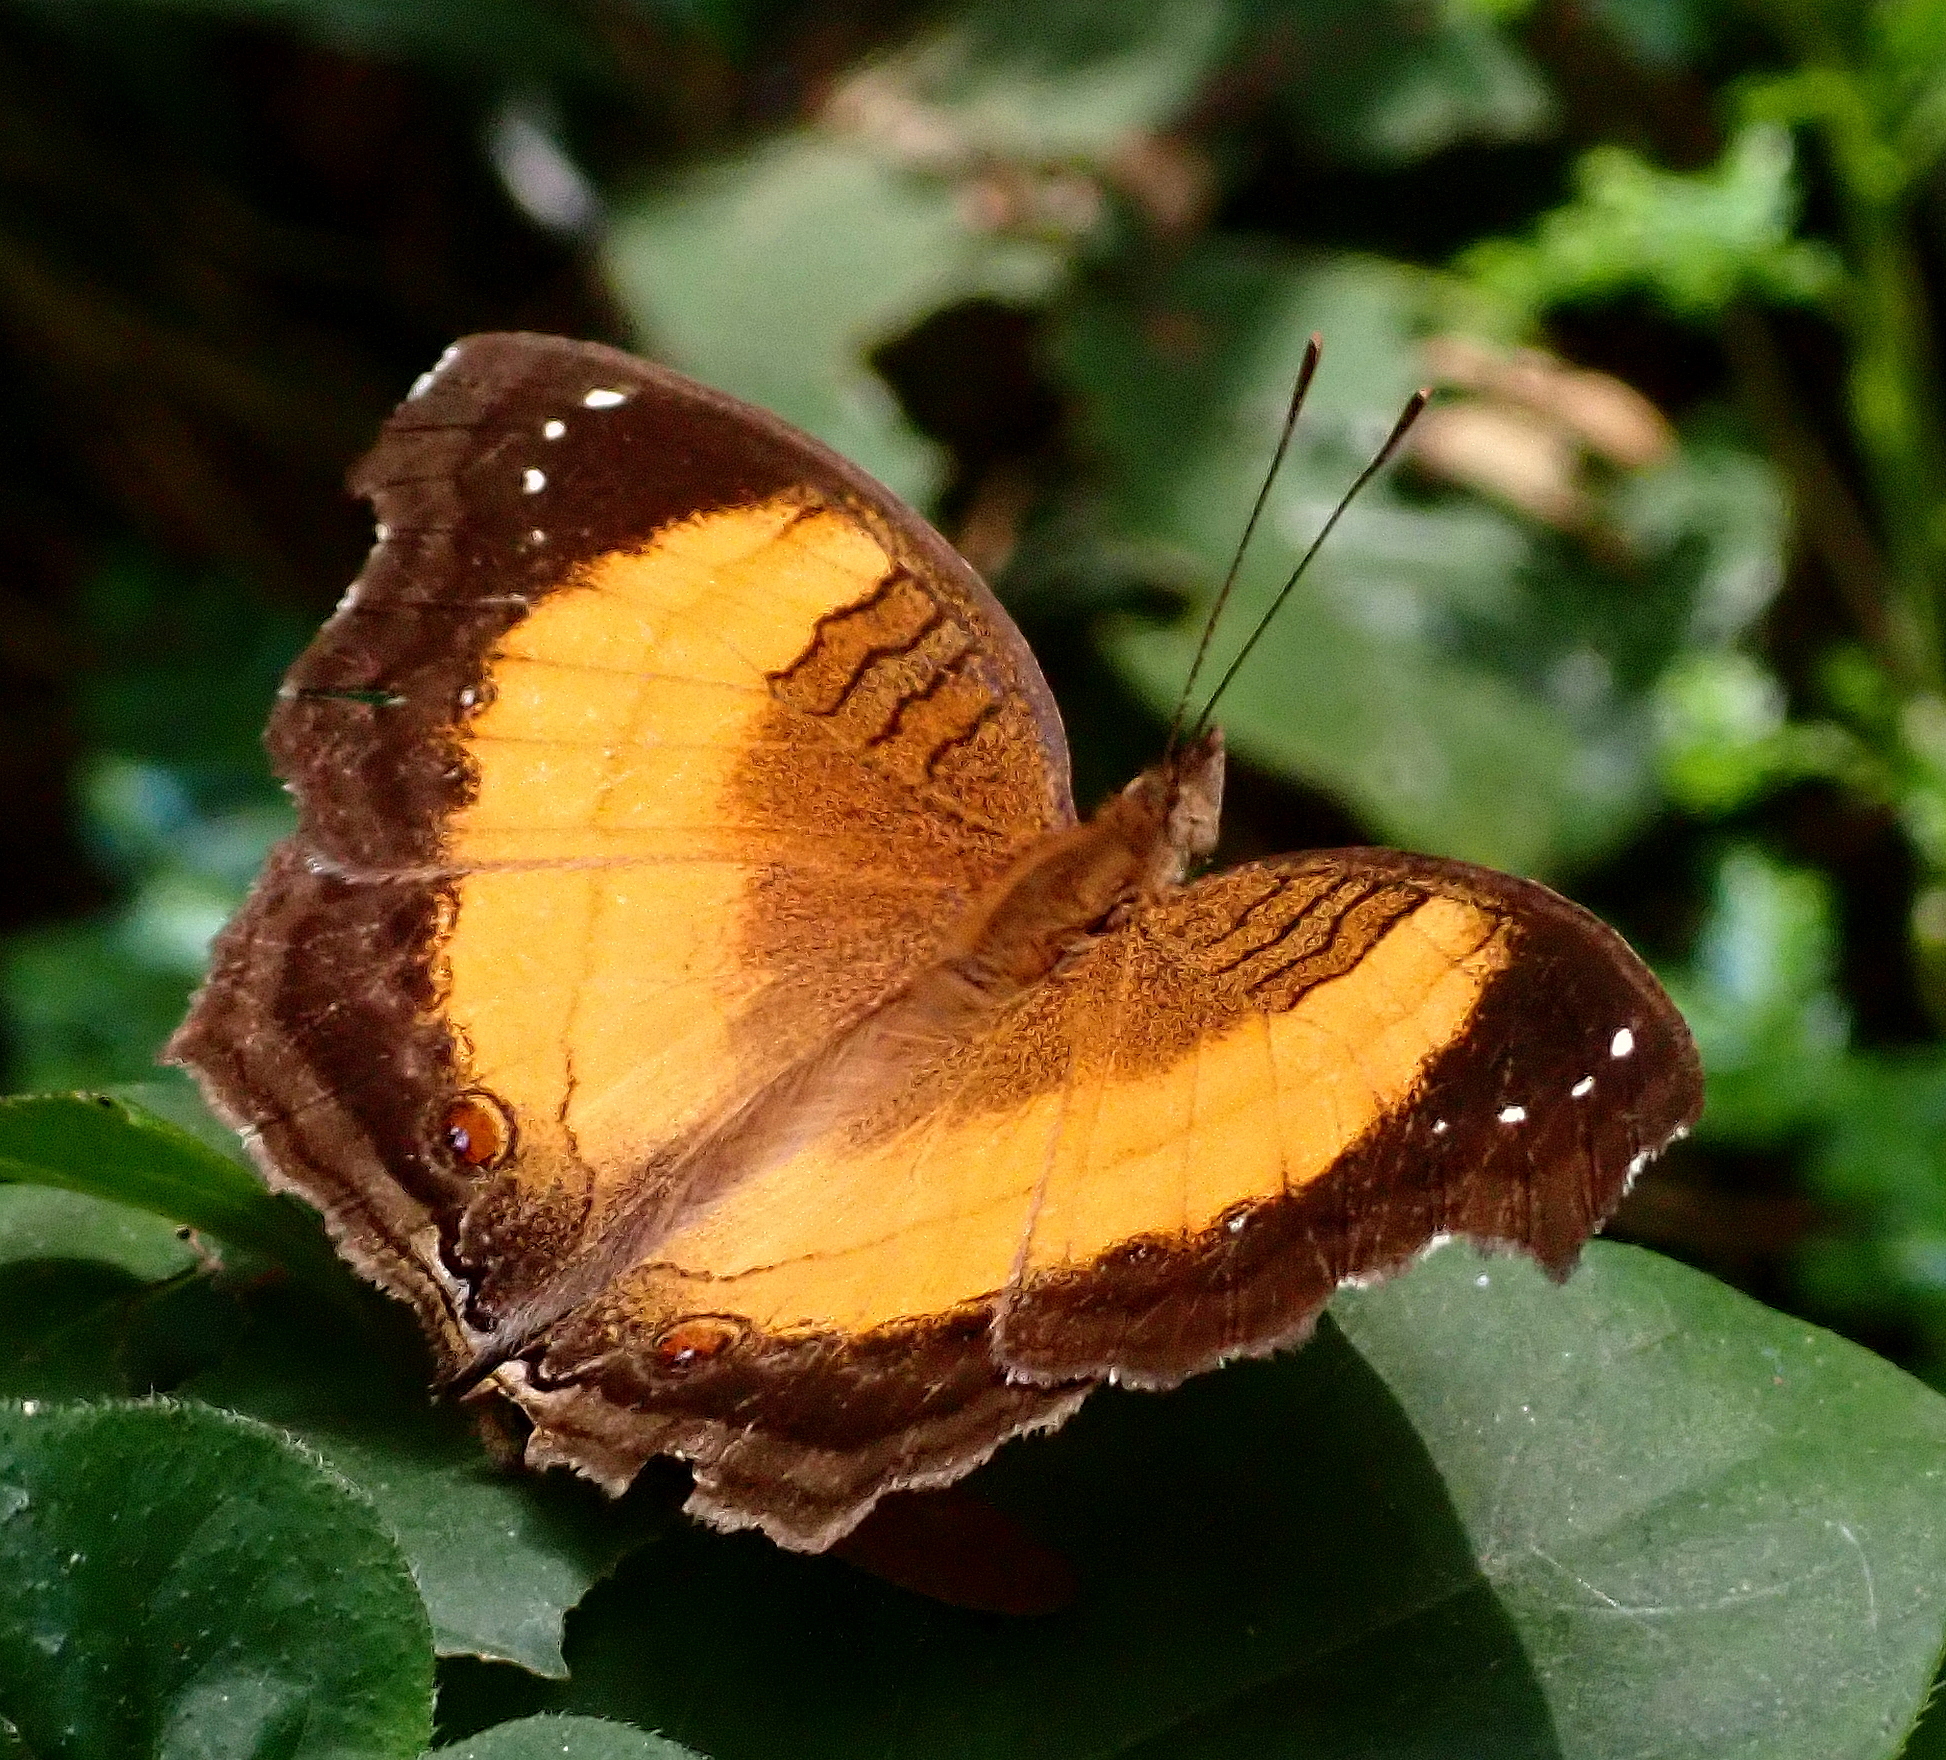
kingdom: Animalia
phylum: Arthropoda
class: Insecta
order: Lepidoptera
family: Nymphalidae
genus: Junonia
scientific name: Junonia terea
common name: Soldier pansy
